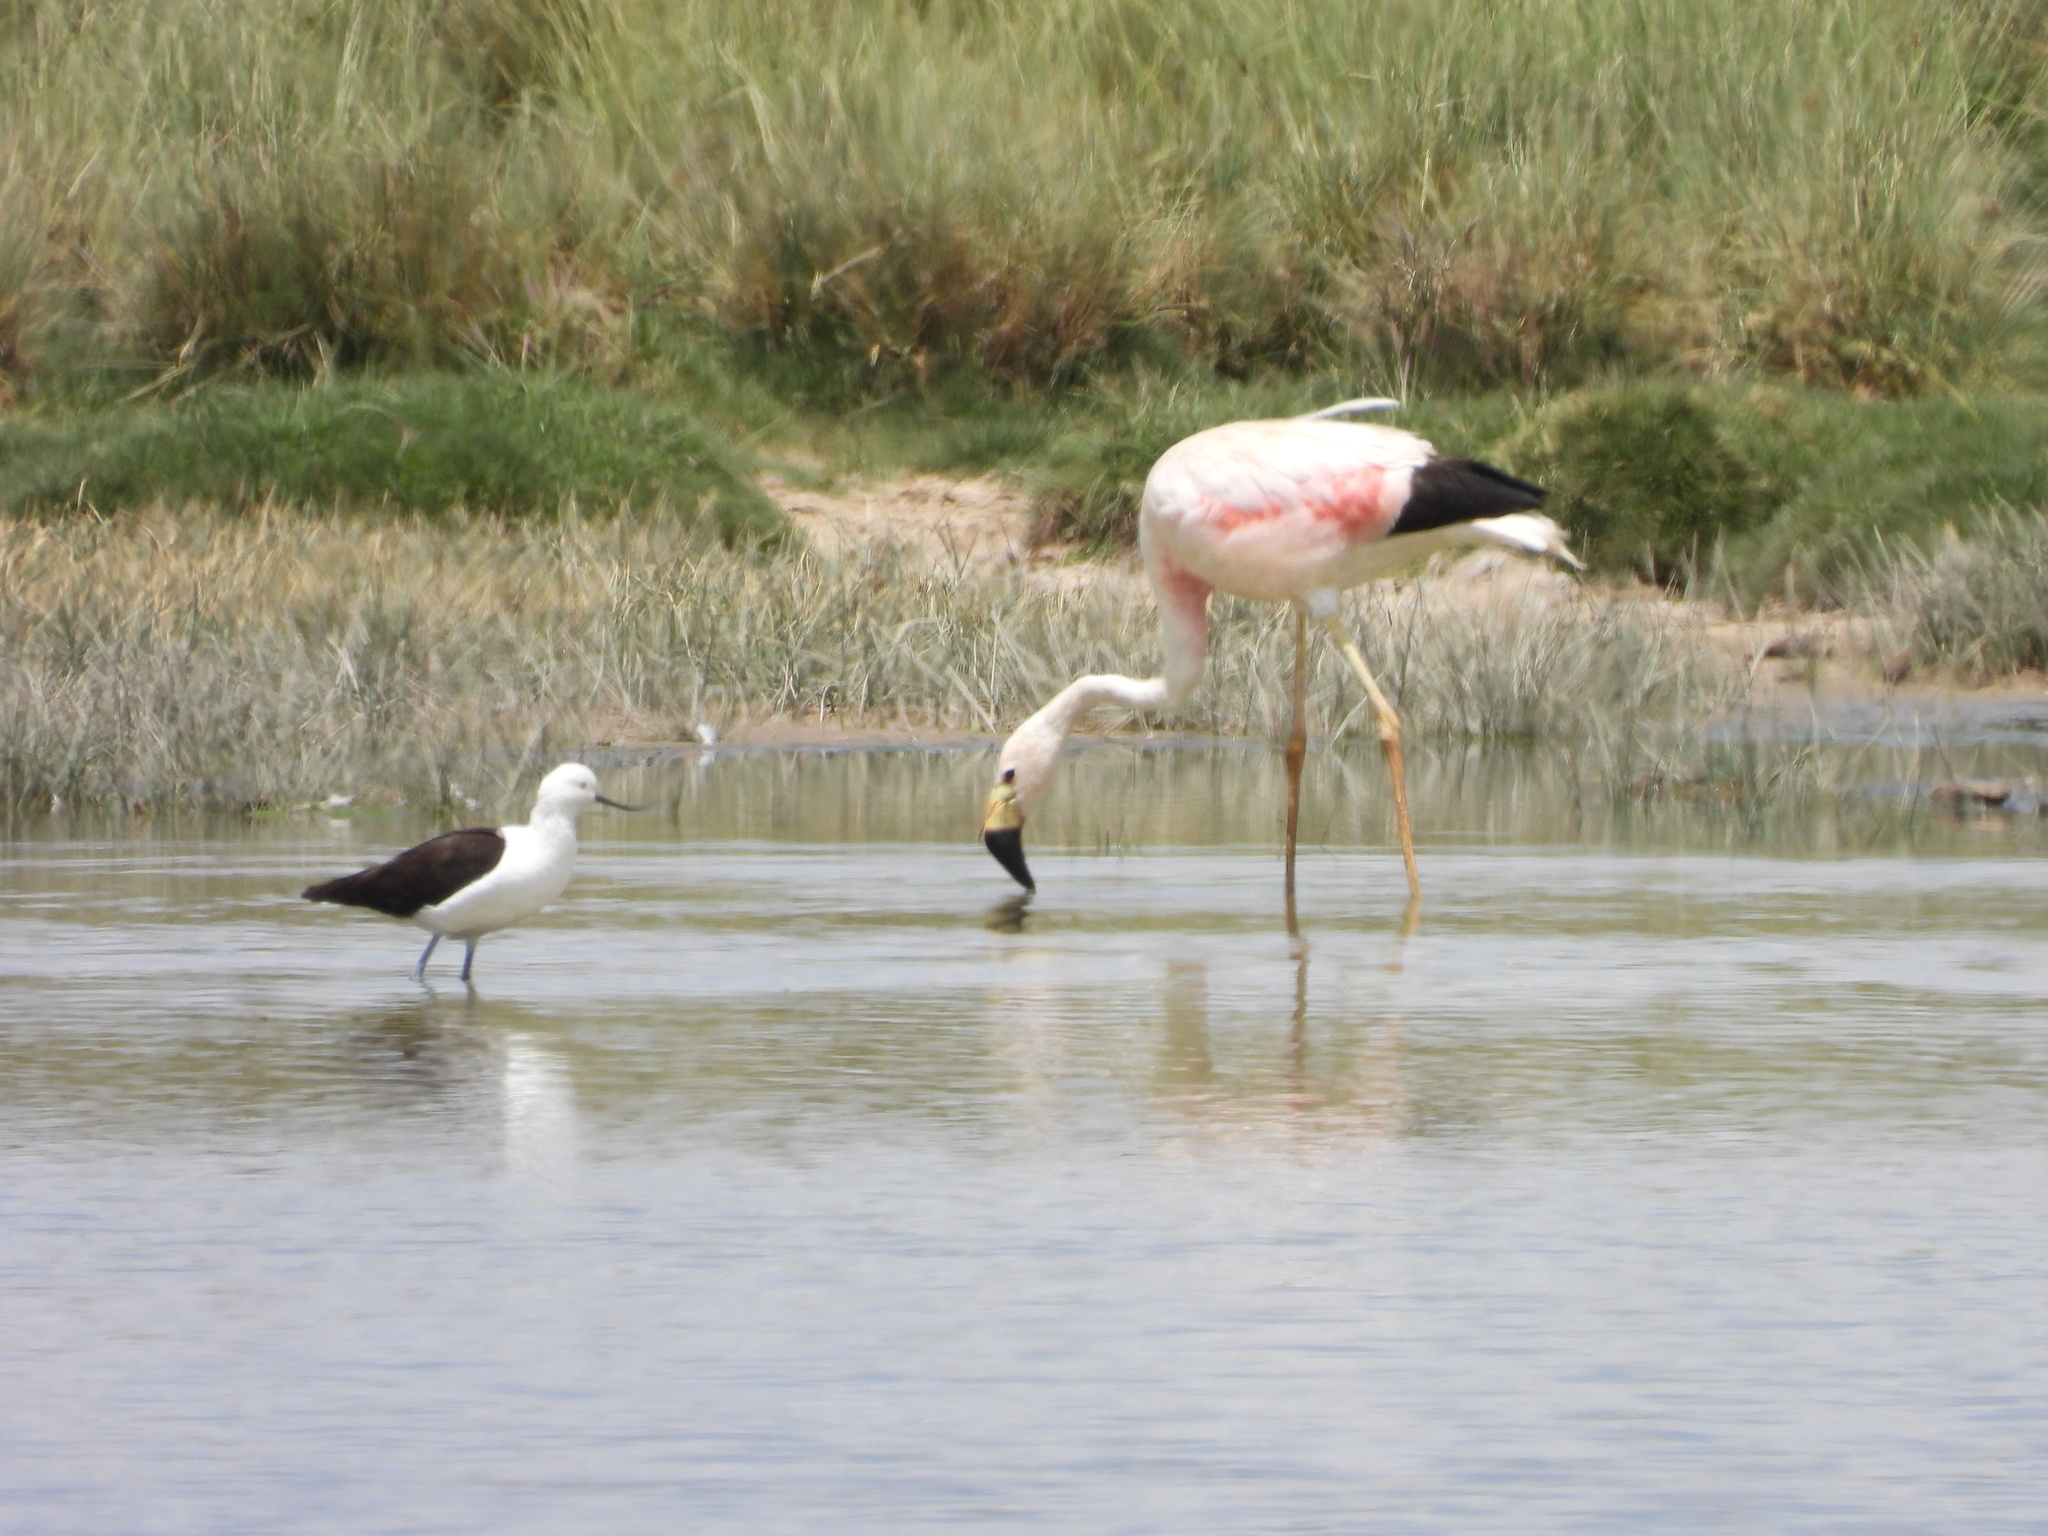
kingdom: Animalia
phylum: Chordata
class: Aves
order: Phoenicopteriformes
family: Phoenicopteridae
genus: Phoenicoparrus
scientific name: Phoenicoparrus andinus
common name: Andean flamingo
